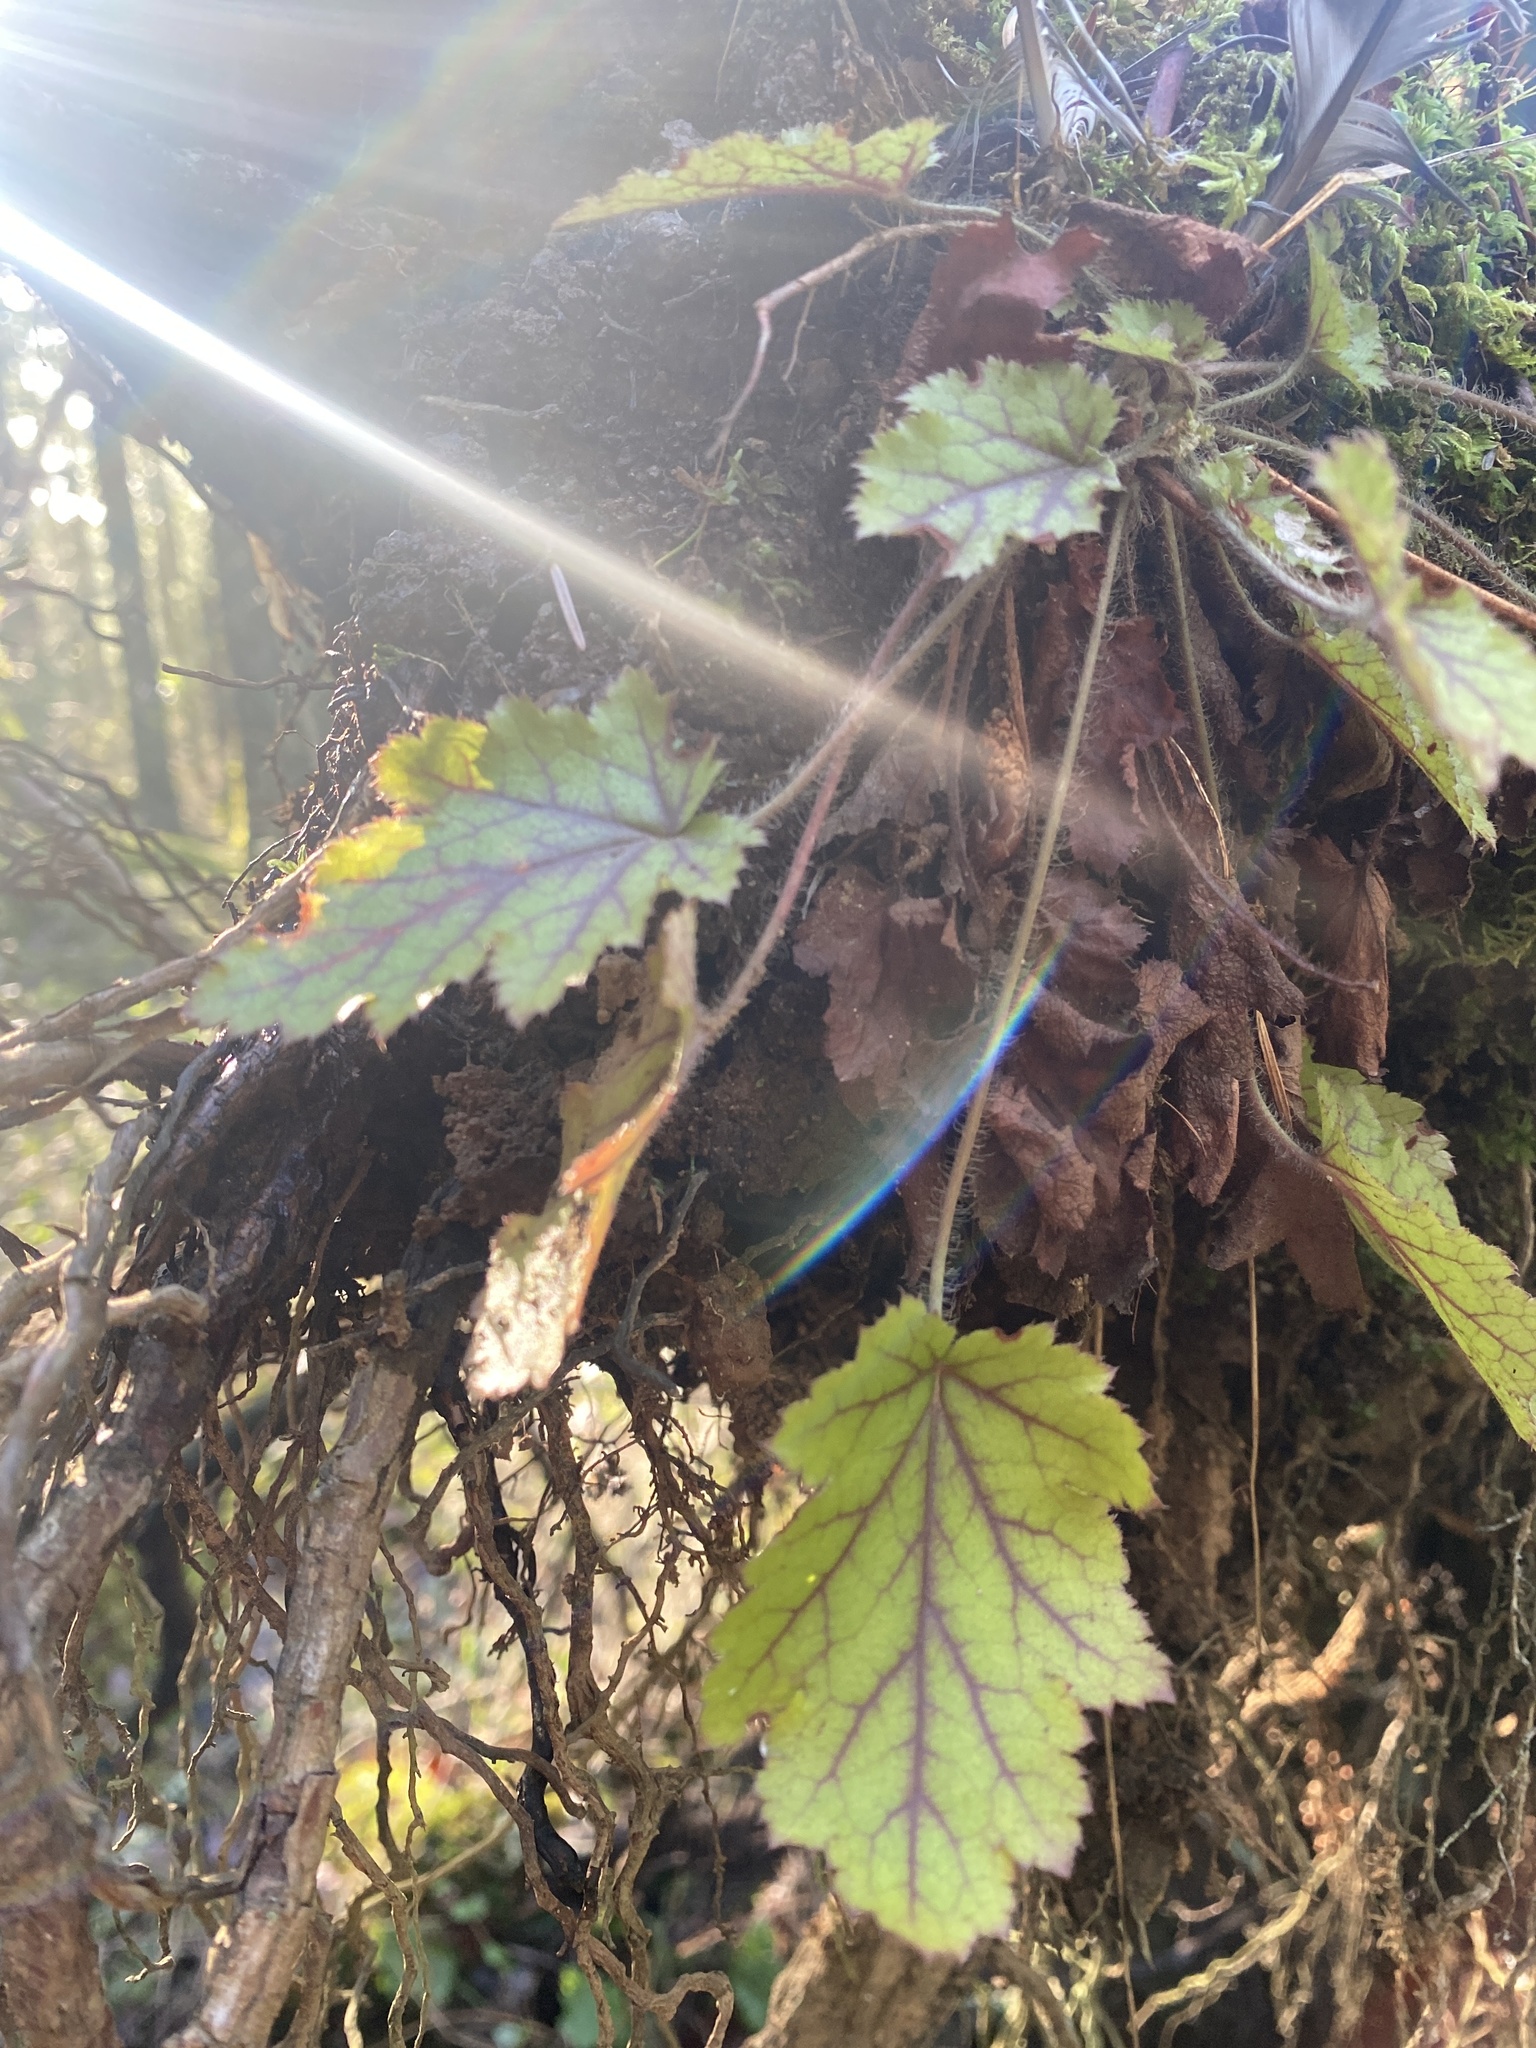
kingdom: Plantae
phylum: Tracheophyta
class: Magnoliopsida
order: Saxifragales
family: Saxifragaceae
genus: Heuchera
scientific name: Heuchera micrantha
